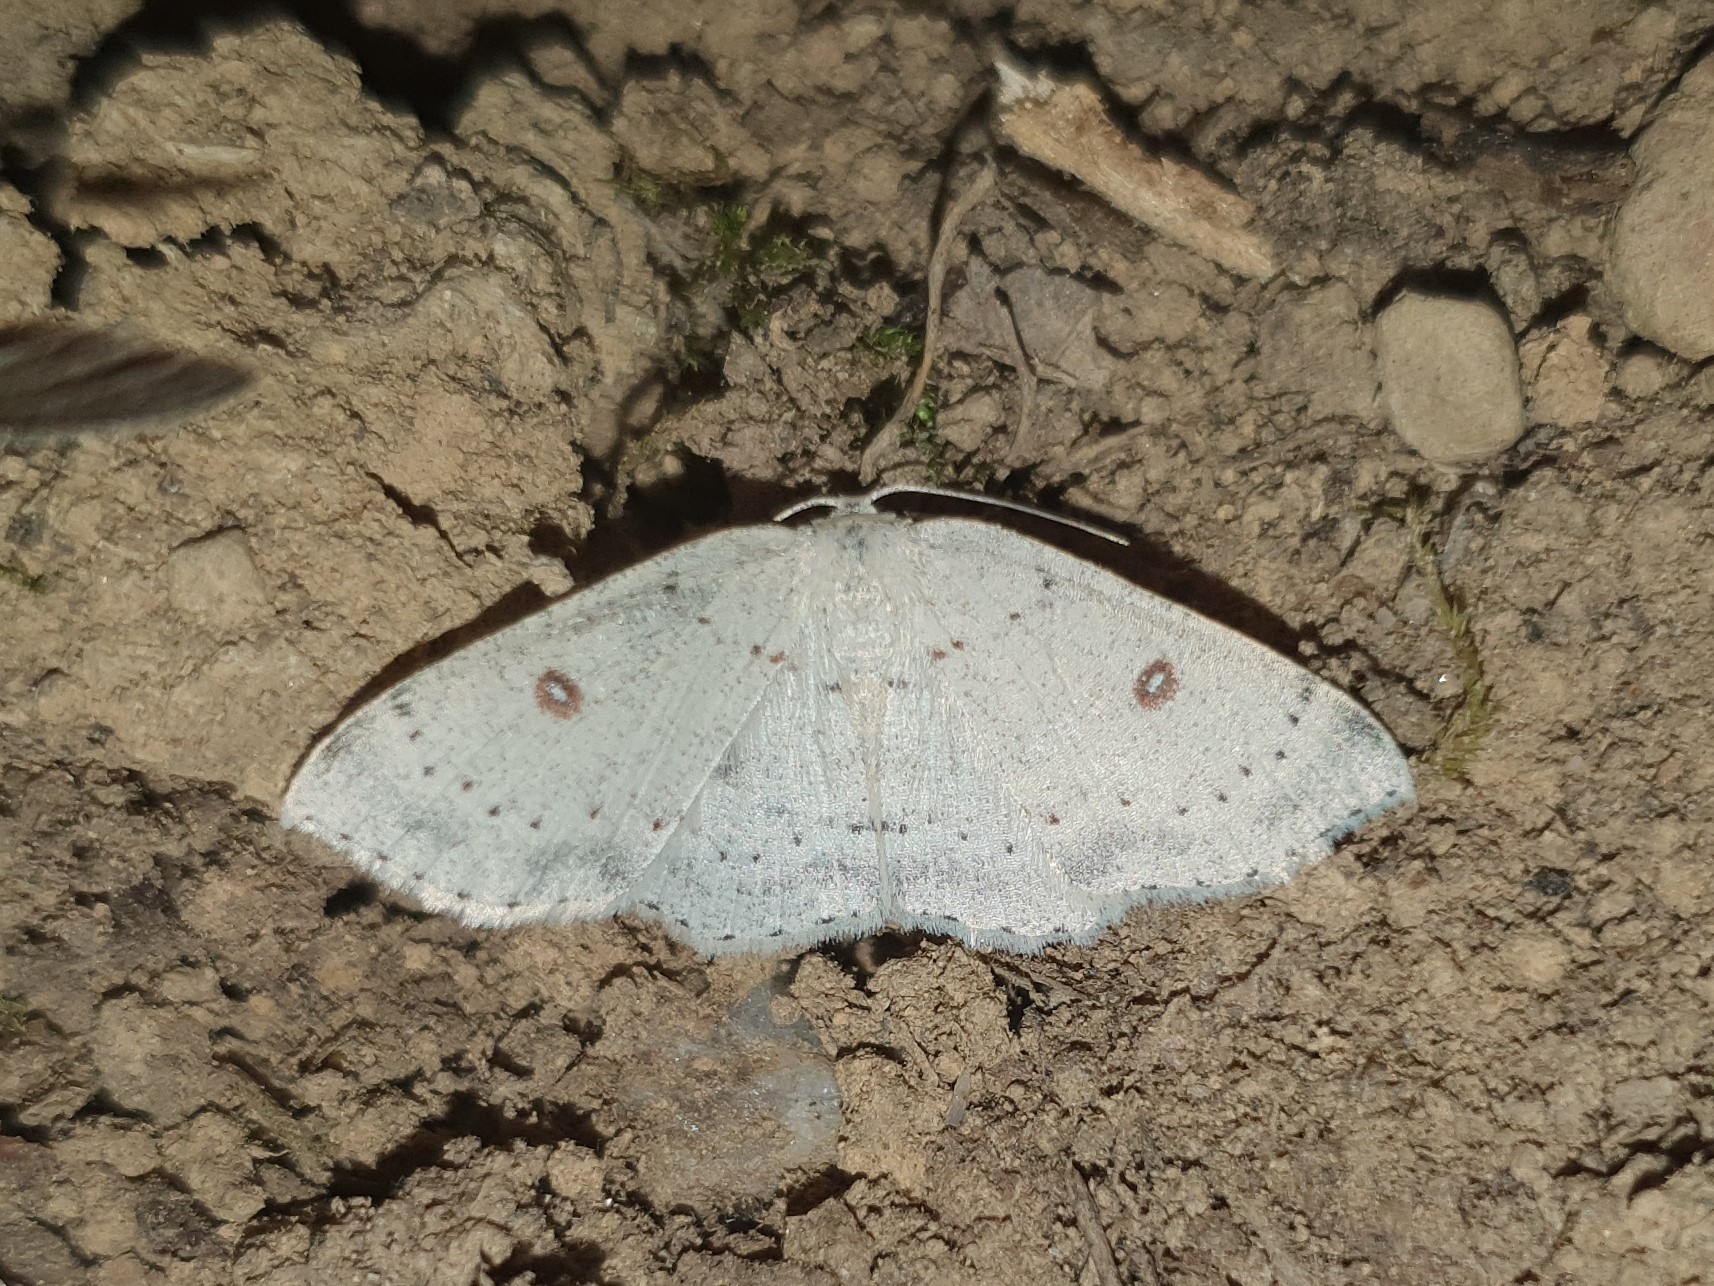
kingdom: Animalia
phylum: Arthropoda
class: Insecta
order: Lepidoptera
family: Geometridae
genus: Cyclophora
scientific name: Cyclophora albipunctata
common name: Birch mocha
